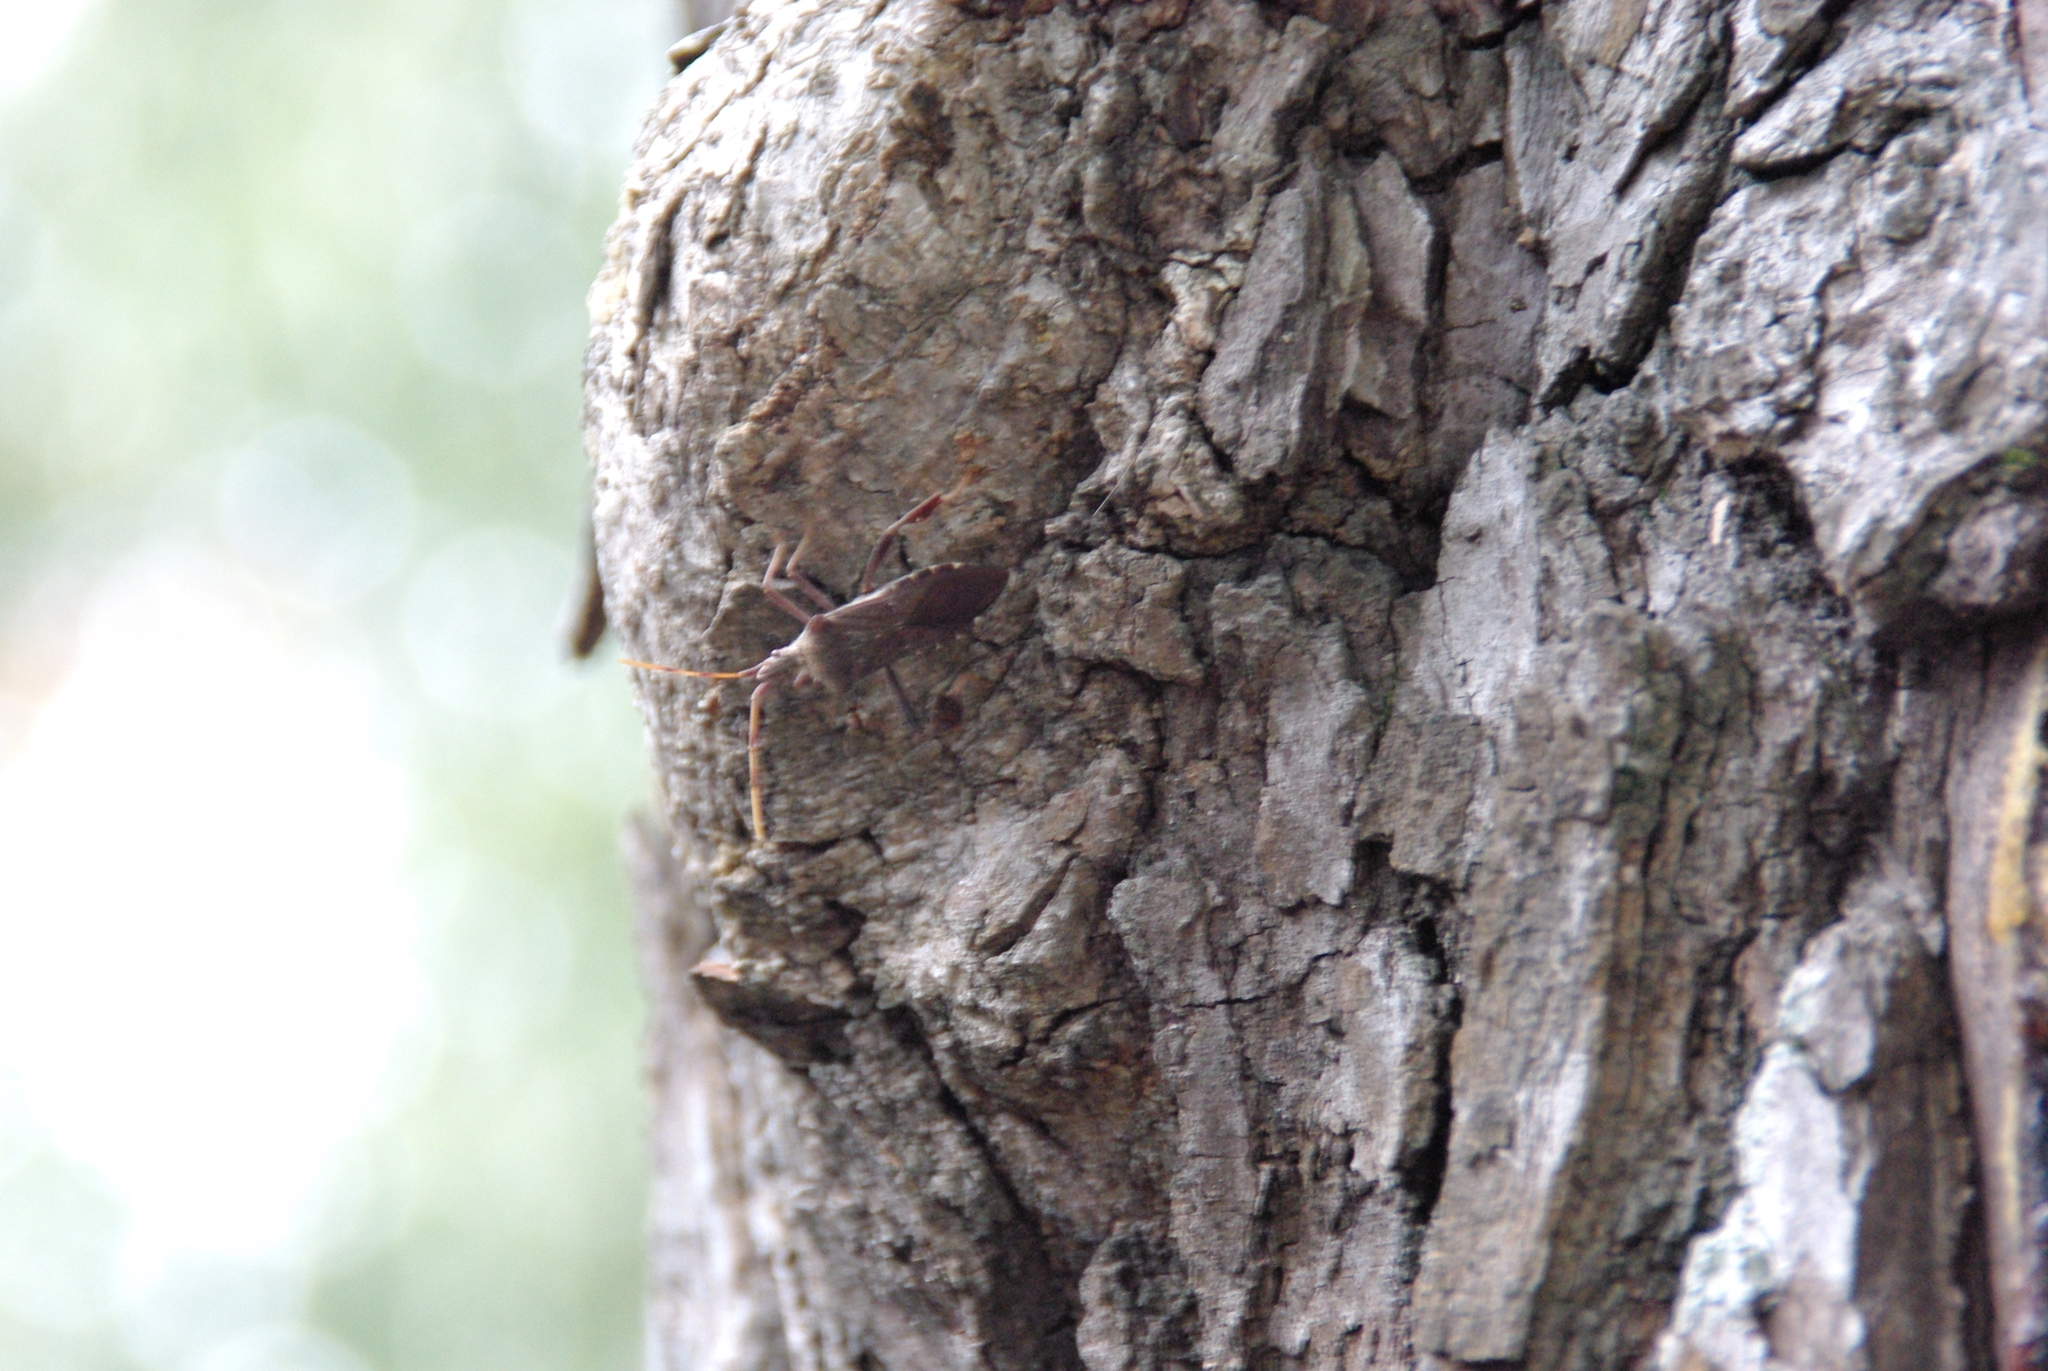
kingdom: Animalia
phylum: Arthropoda
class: Insecta
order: Hemiptera
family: Coreidae
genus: Leptoglossus
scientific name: Leptoglossus oppositus
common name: Northern leaf-footed bug
